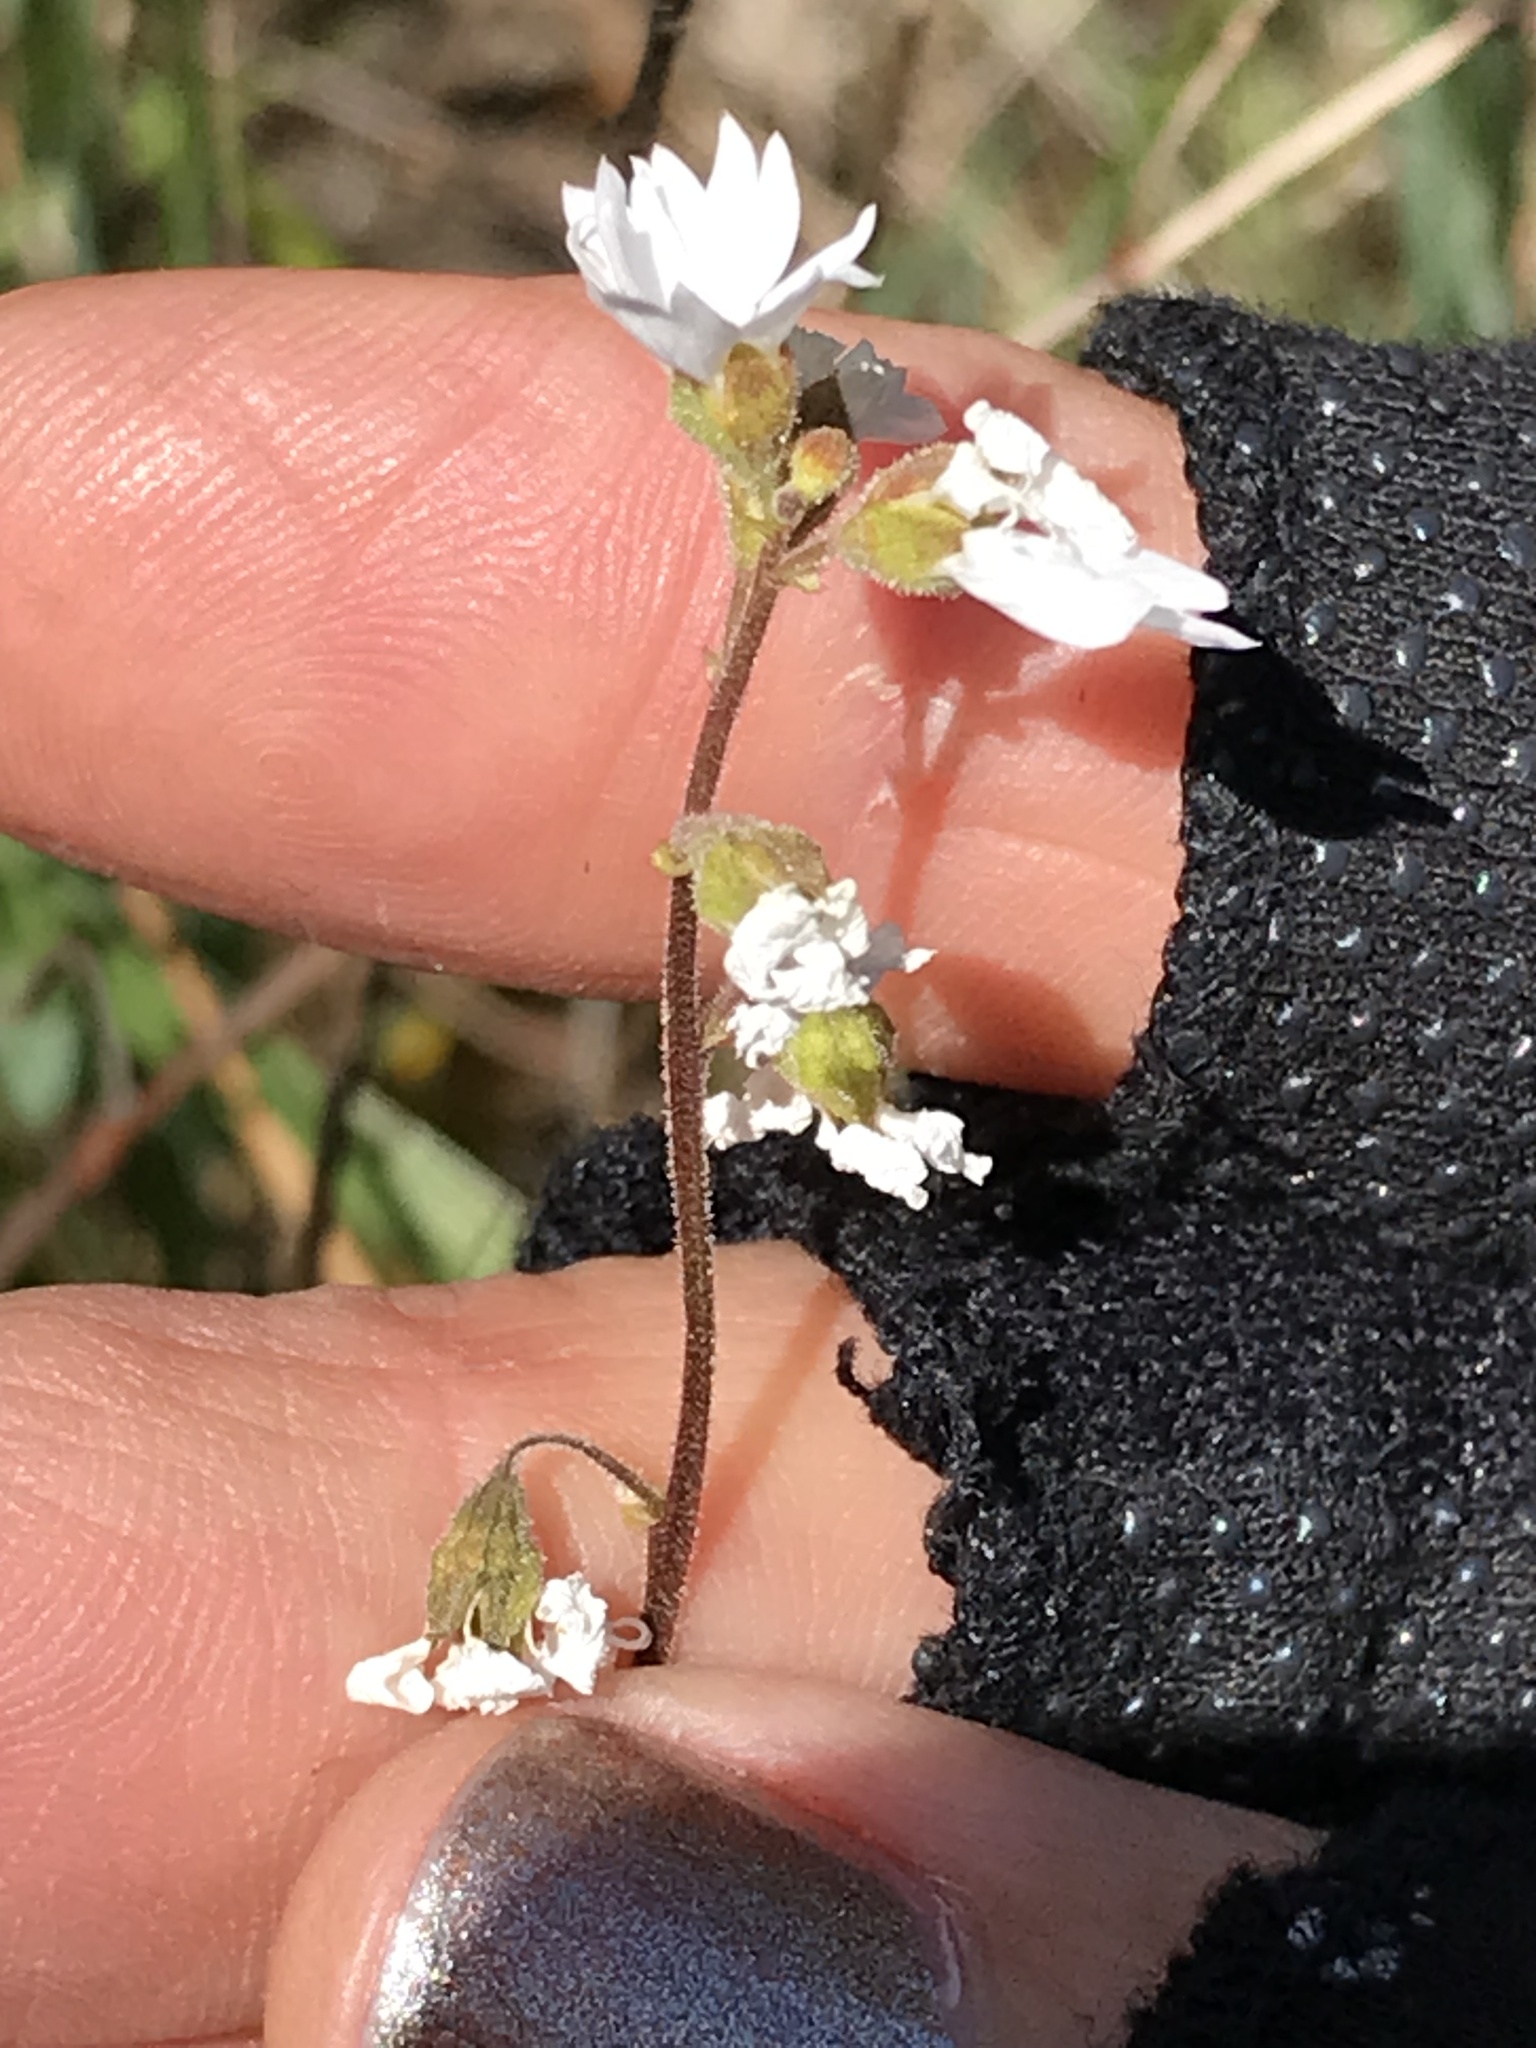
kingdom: Plantae
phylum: Tracheophyta
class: Magnoliopsida
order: Saxifragales
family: Saxifragaceae
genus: Lithophragma
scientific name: Lithophragma affine
